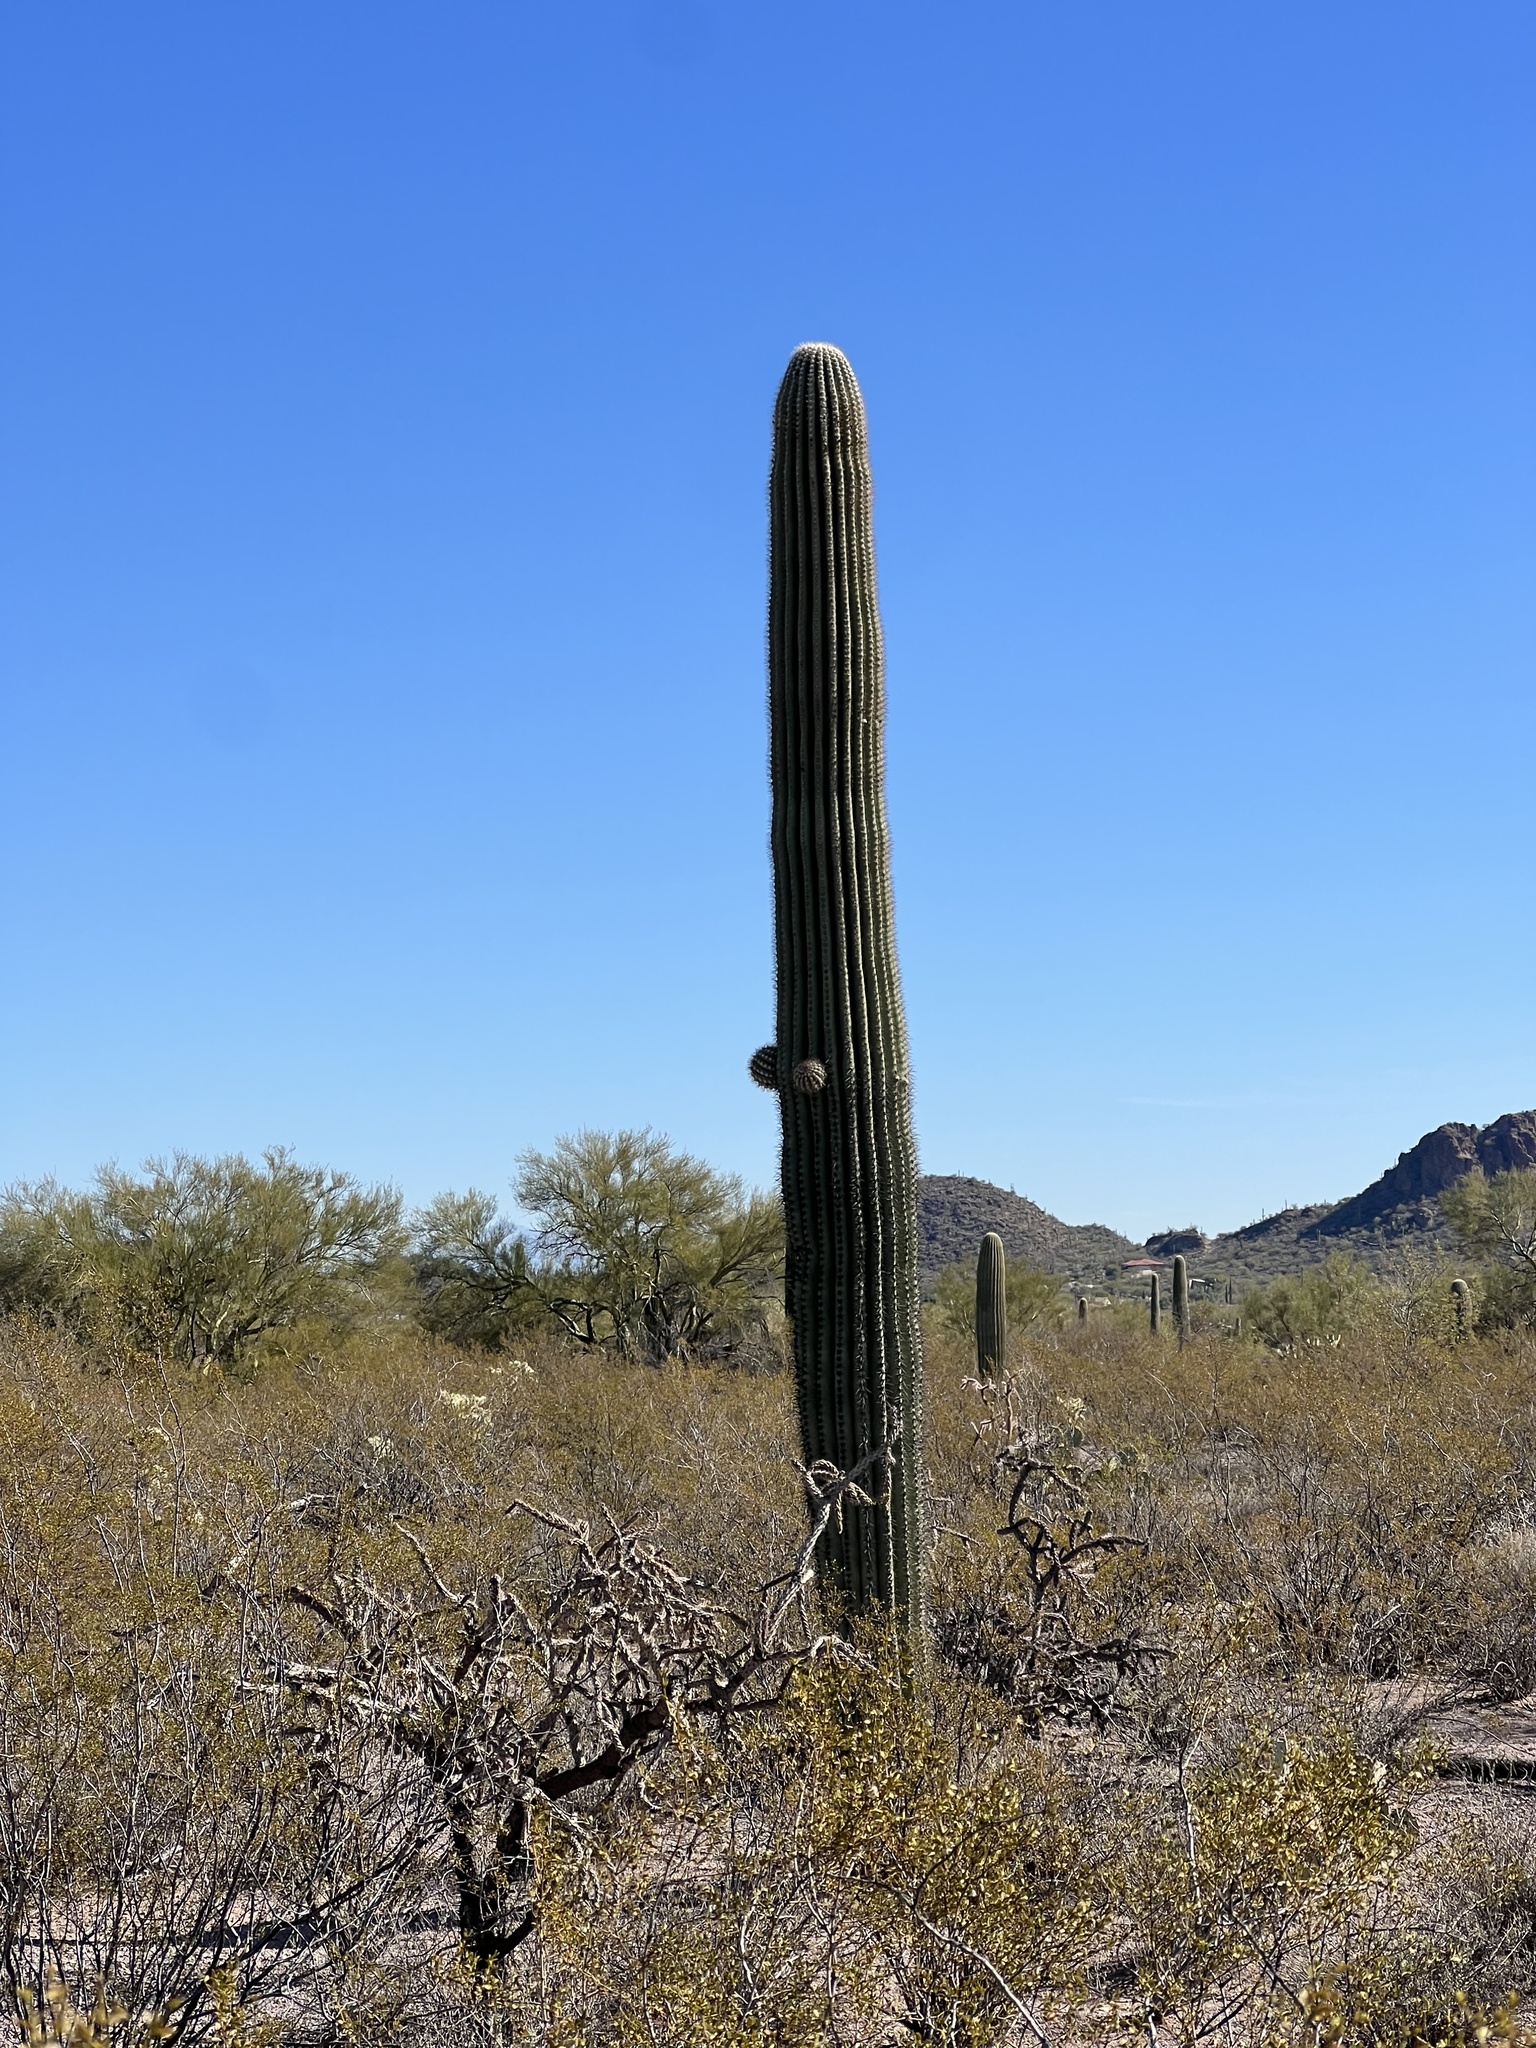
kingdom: Plantae
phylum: Tracheophyta
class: Magnoliopsida
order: Caryophyllales
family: Cactaceae
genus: Carnegiea
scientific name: Carnegiea gigantea
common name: Saguaro
